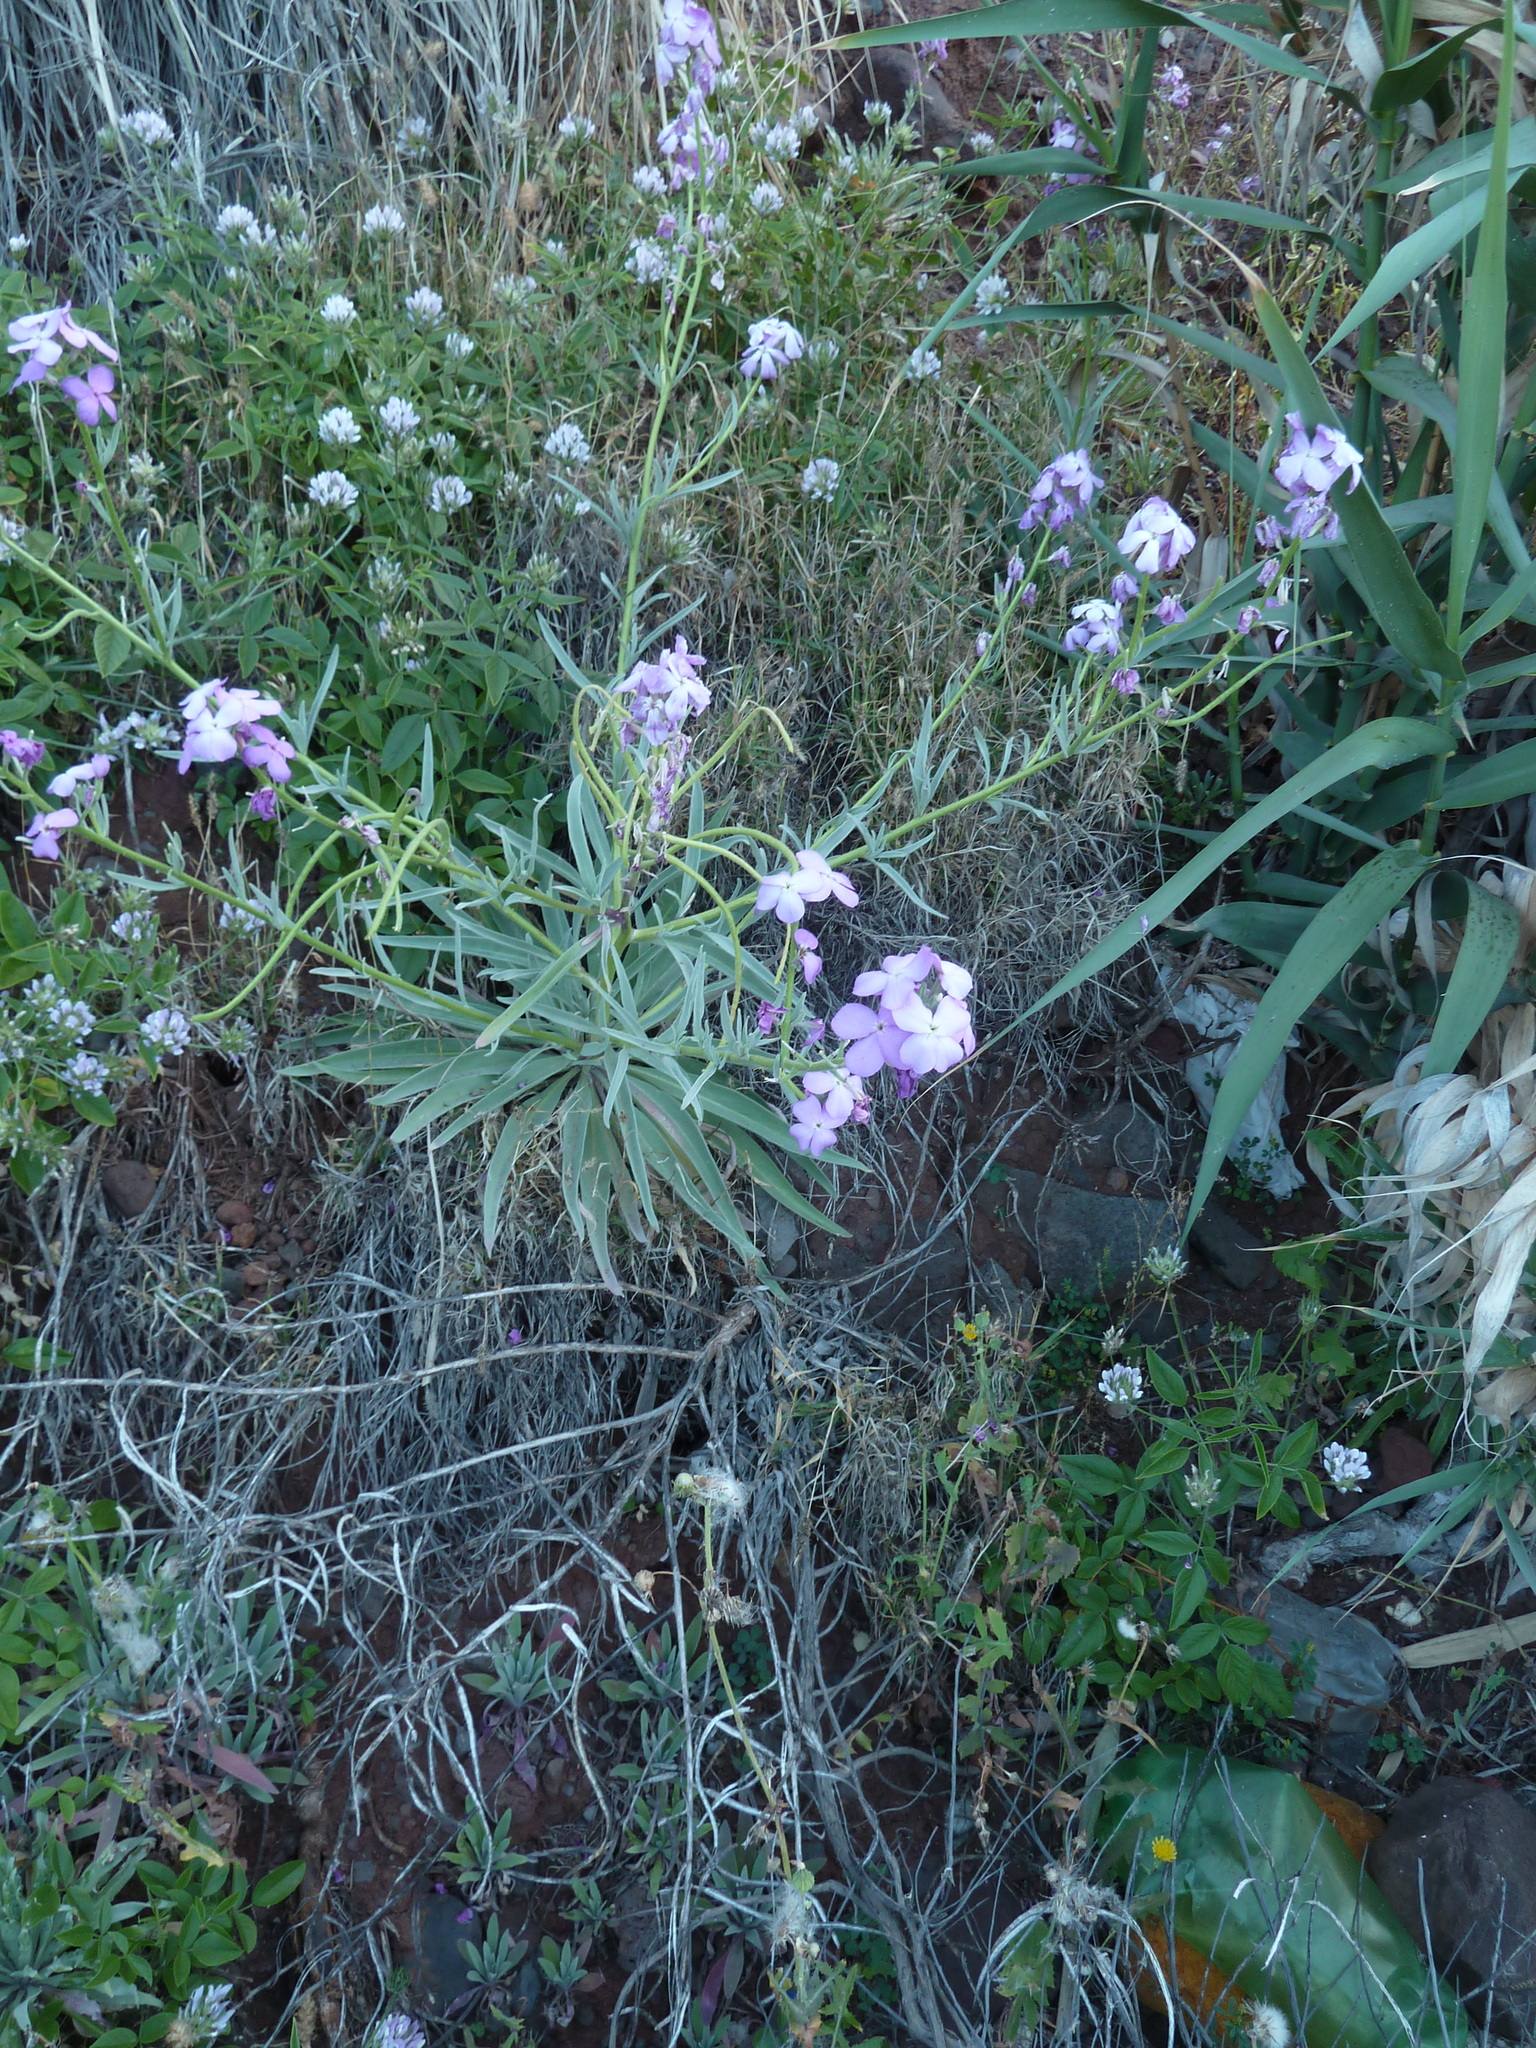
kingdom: Plantae
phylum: Tracheophyta
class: Magnoliopsida
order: Brassicales
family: Brassicaceae
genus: Matthiola
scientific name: Matthiola maderensis
